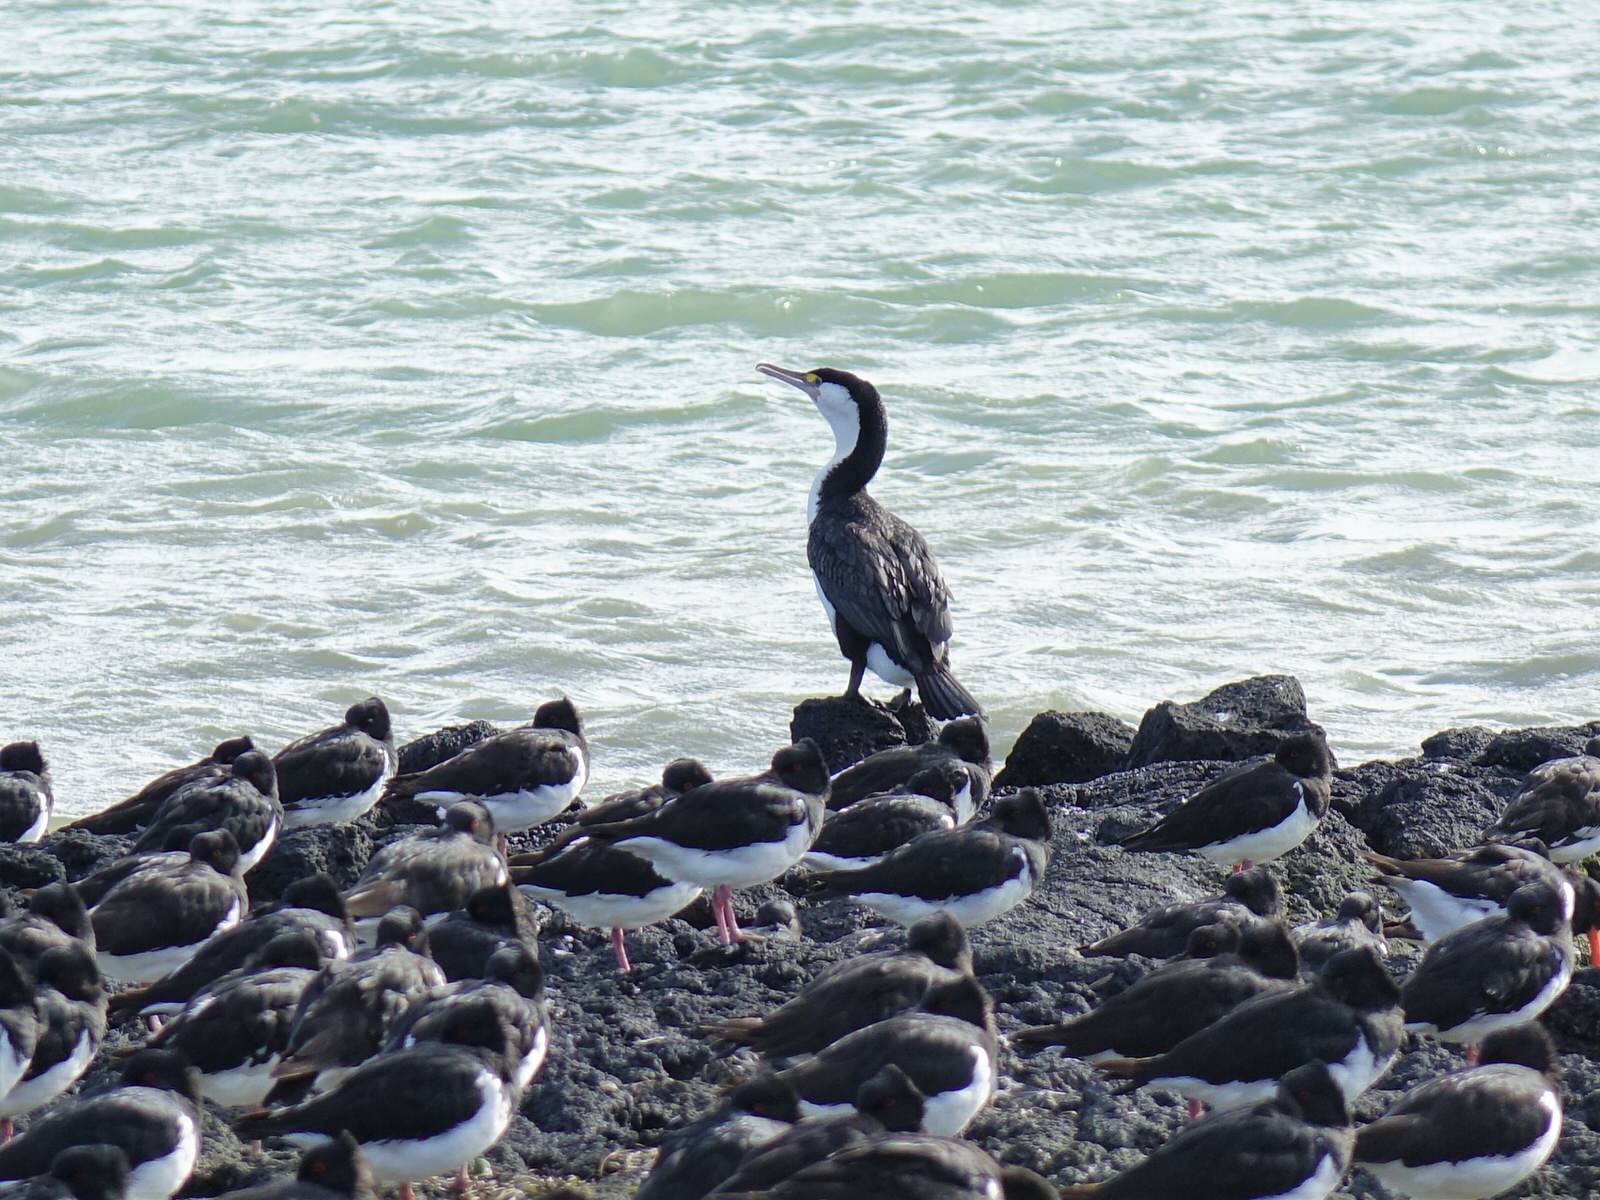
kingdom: Animalia
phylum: Chordata
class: Aves
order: Suliformes
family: Phalacrocoracidae
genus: Phalacrocorax
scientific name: Phalacrocorax varius
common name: Pied cormorant
